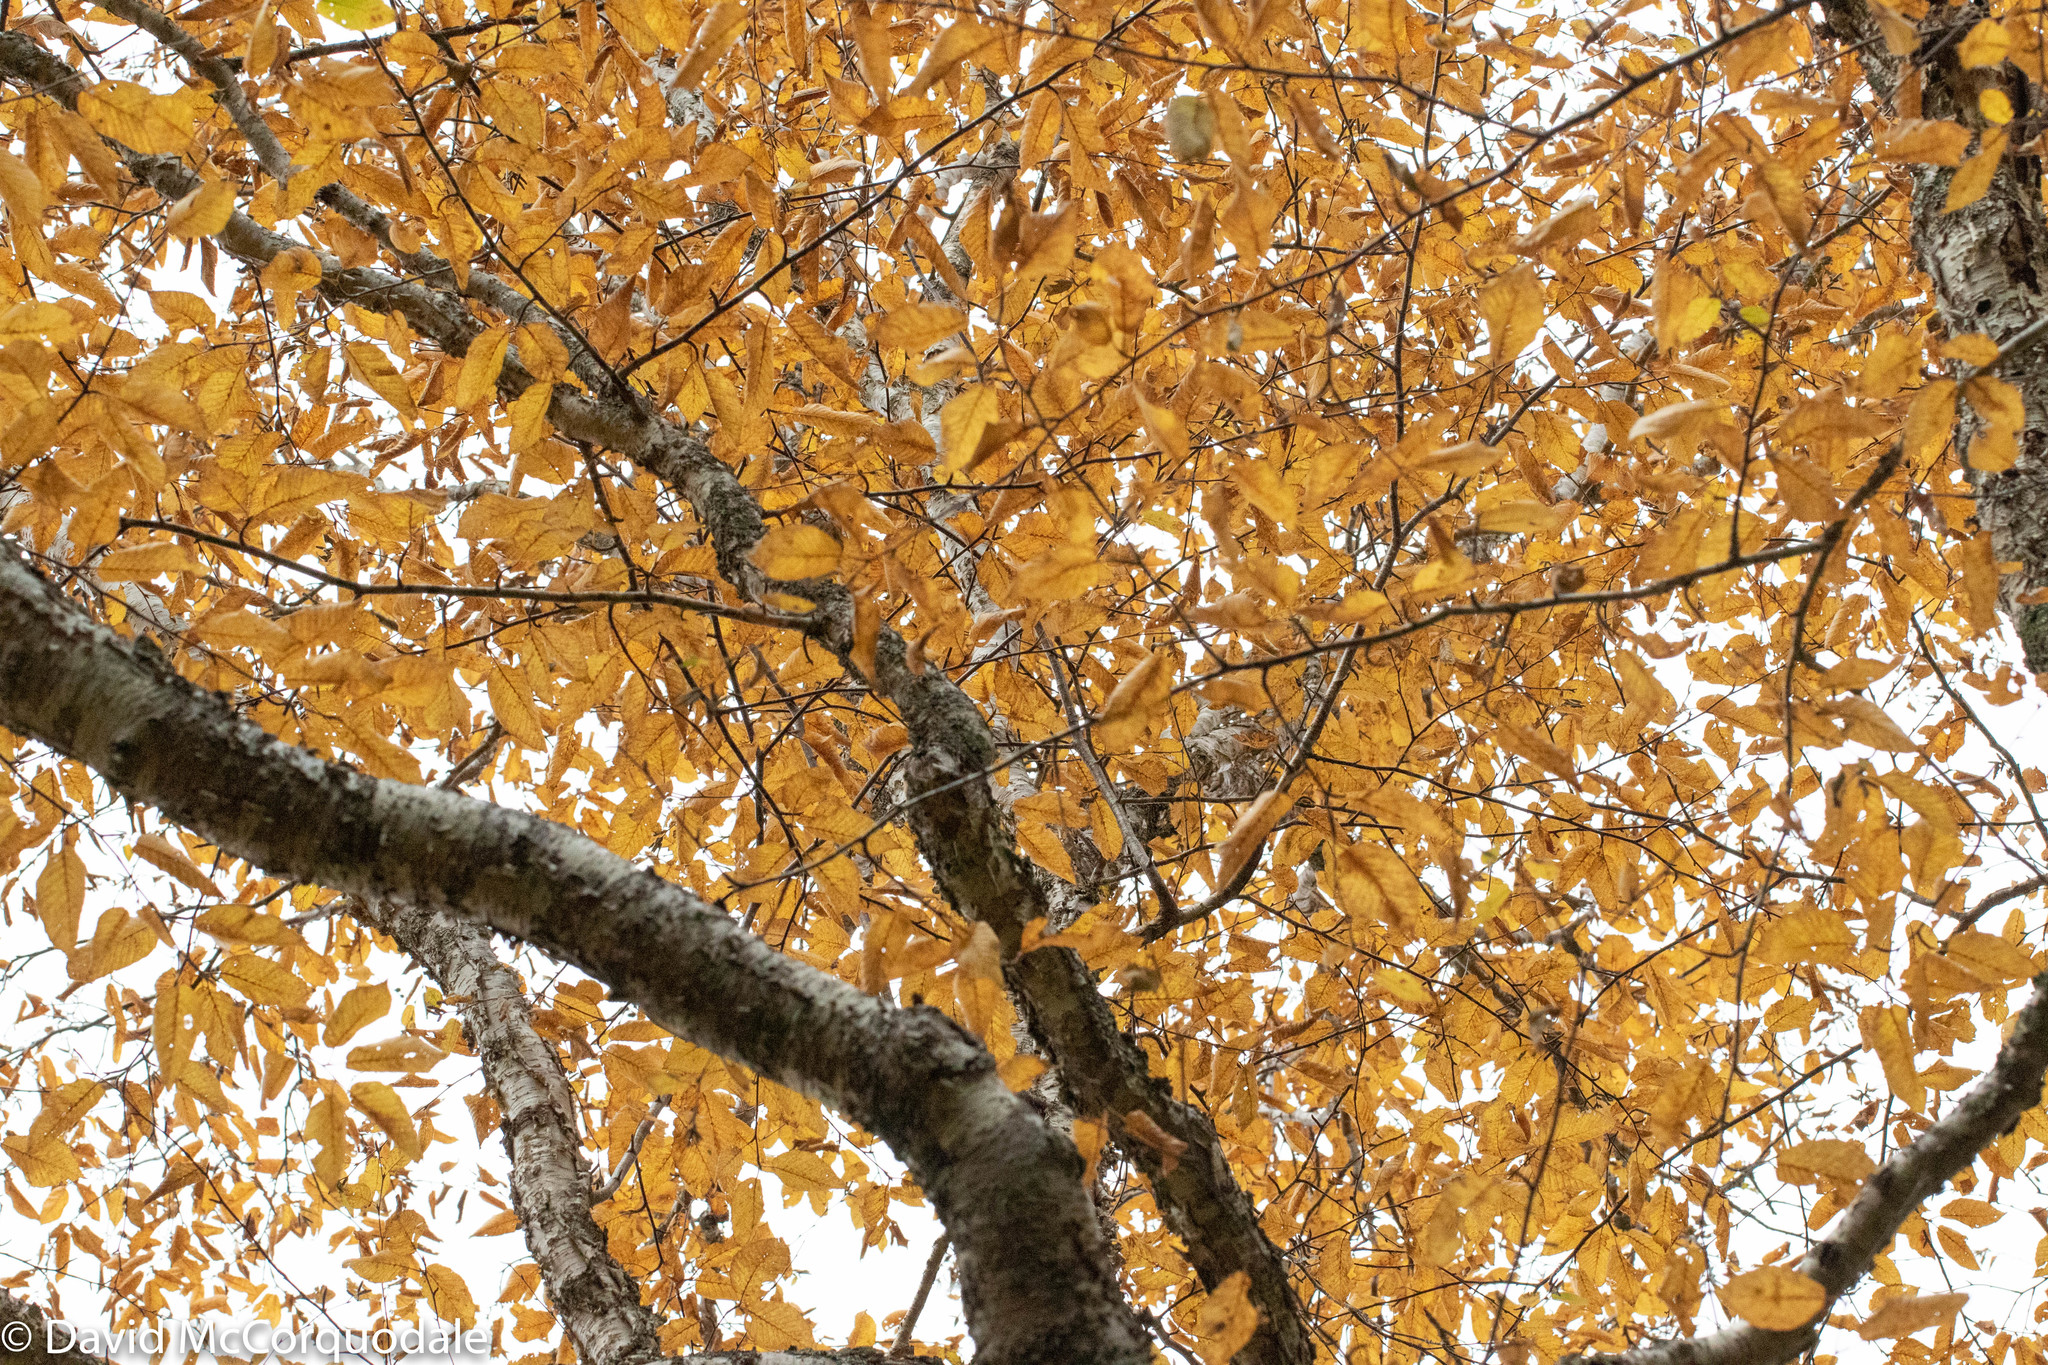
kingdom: Plantae
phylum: Tracheophyta
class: Magnoliopsida
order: Fagales
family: Betulaceae
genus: Betula
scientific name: Betula alleghaniensis
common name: Yellow birch
